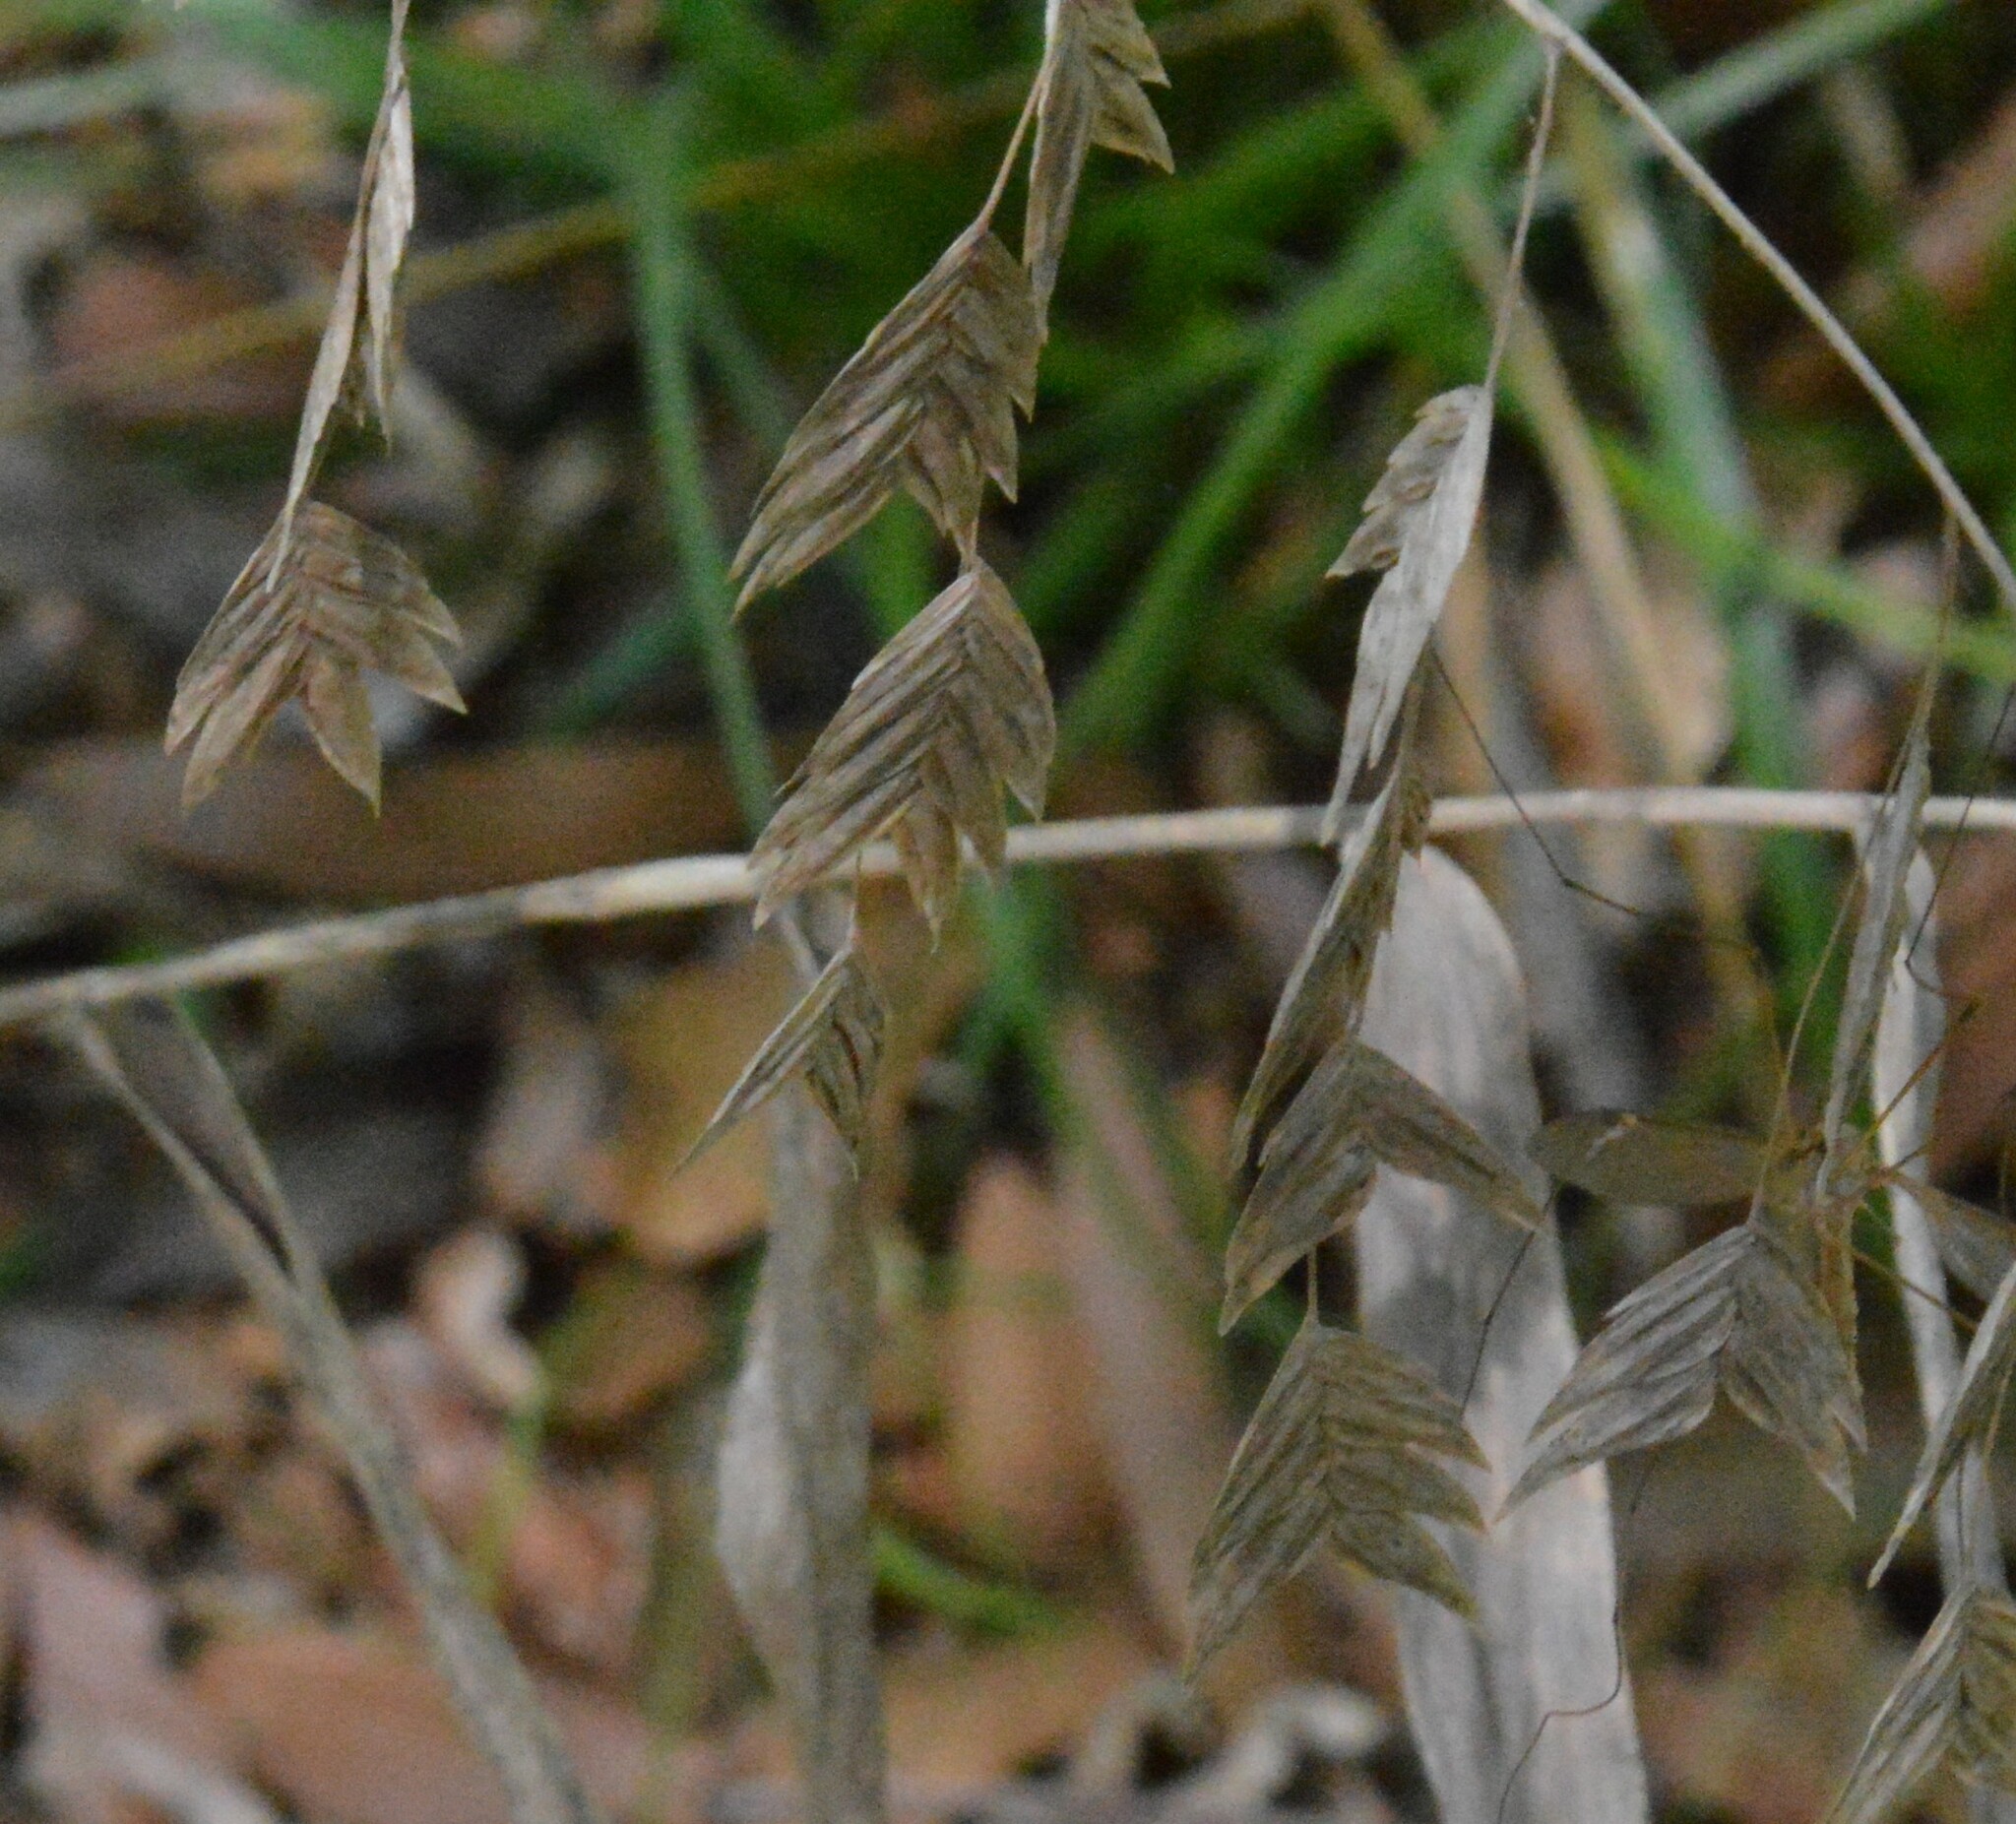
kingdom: Plantae
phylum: Tracheophyta
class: Liliopsida
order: Poales
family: Poaceae
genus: Chasmanthium
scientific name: Chasmanthium latifolium
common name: Broad-leaved chasmanthium
